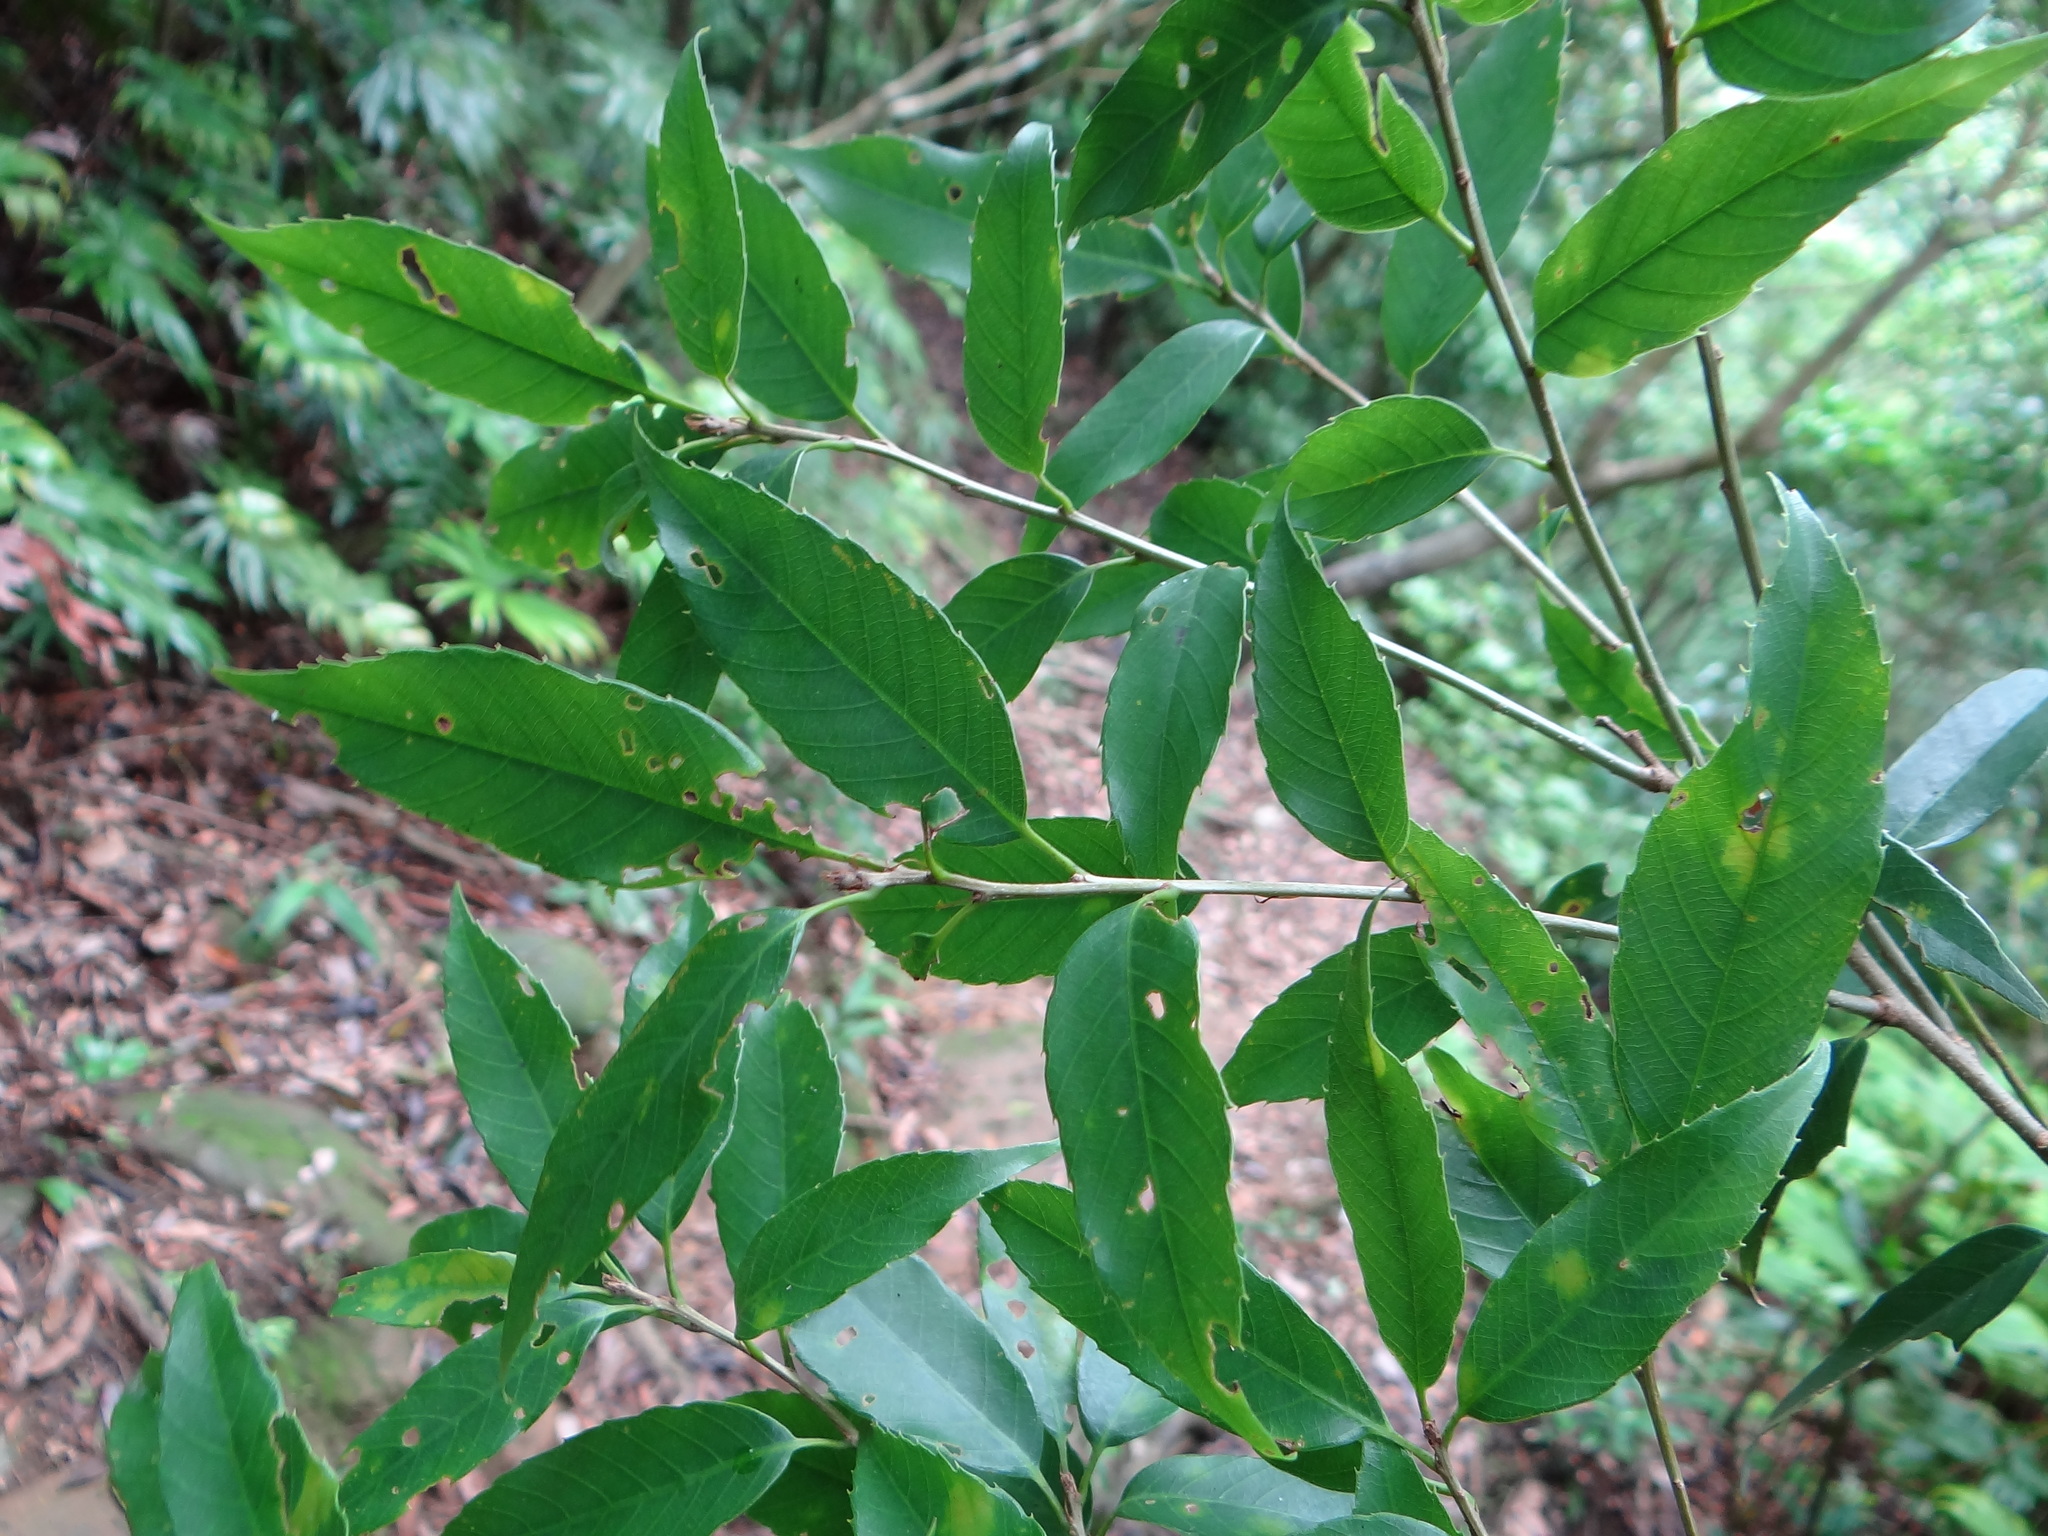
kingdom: Plantae
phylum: Tracheophyta
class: Magnoliopsida
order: Fagales
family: Fagaceae
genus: Quercus
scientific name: Quercus salicina
